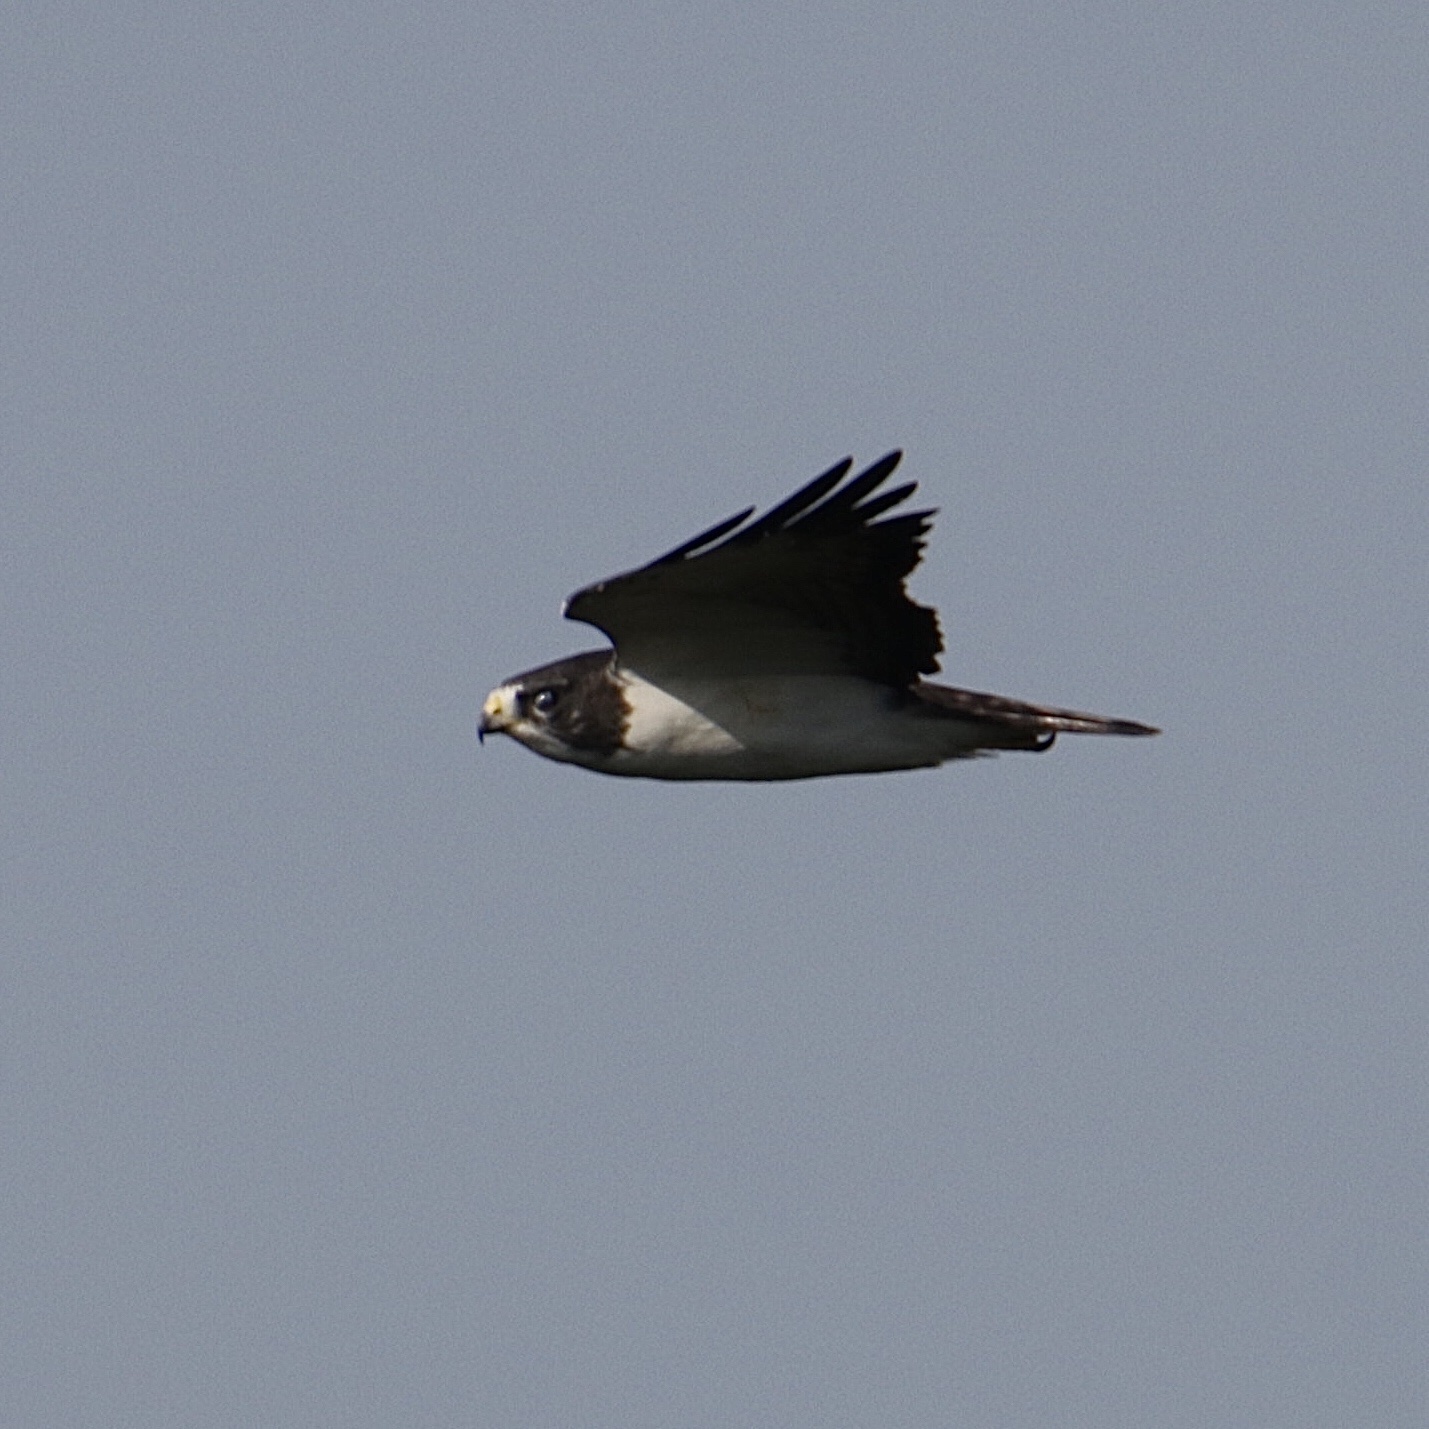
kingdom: Animalia
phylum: Chordata
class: Aves
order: Accipitriformes
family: Accipitridae
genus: Buteo
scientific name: Buteo brachyurus
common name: Short-tailed hawk
